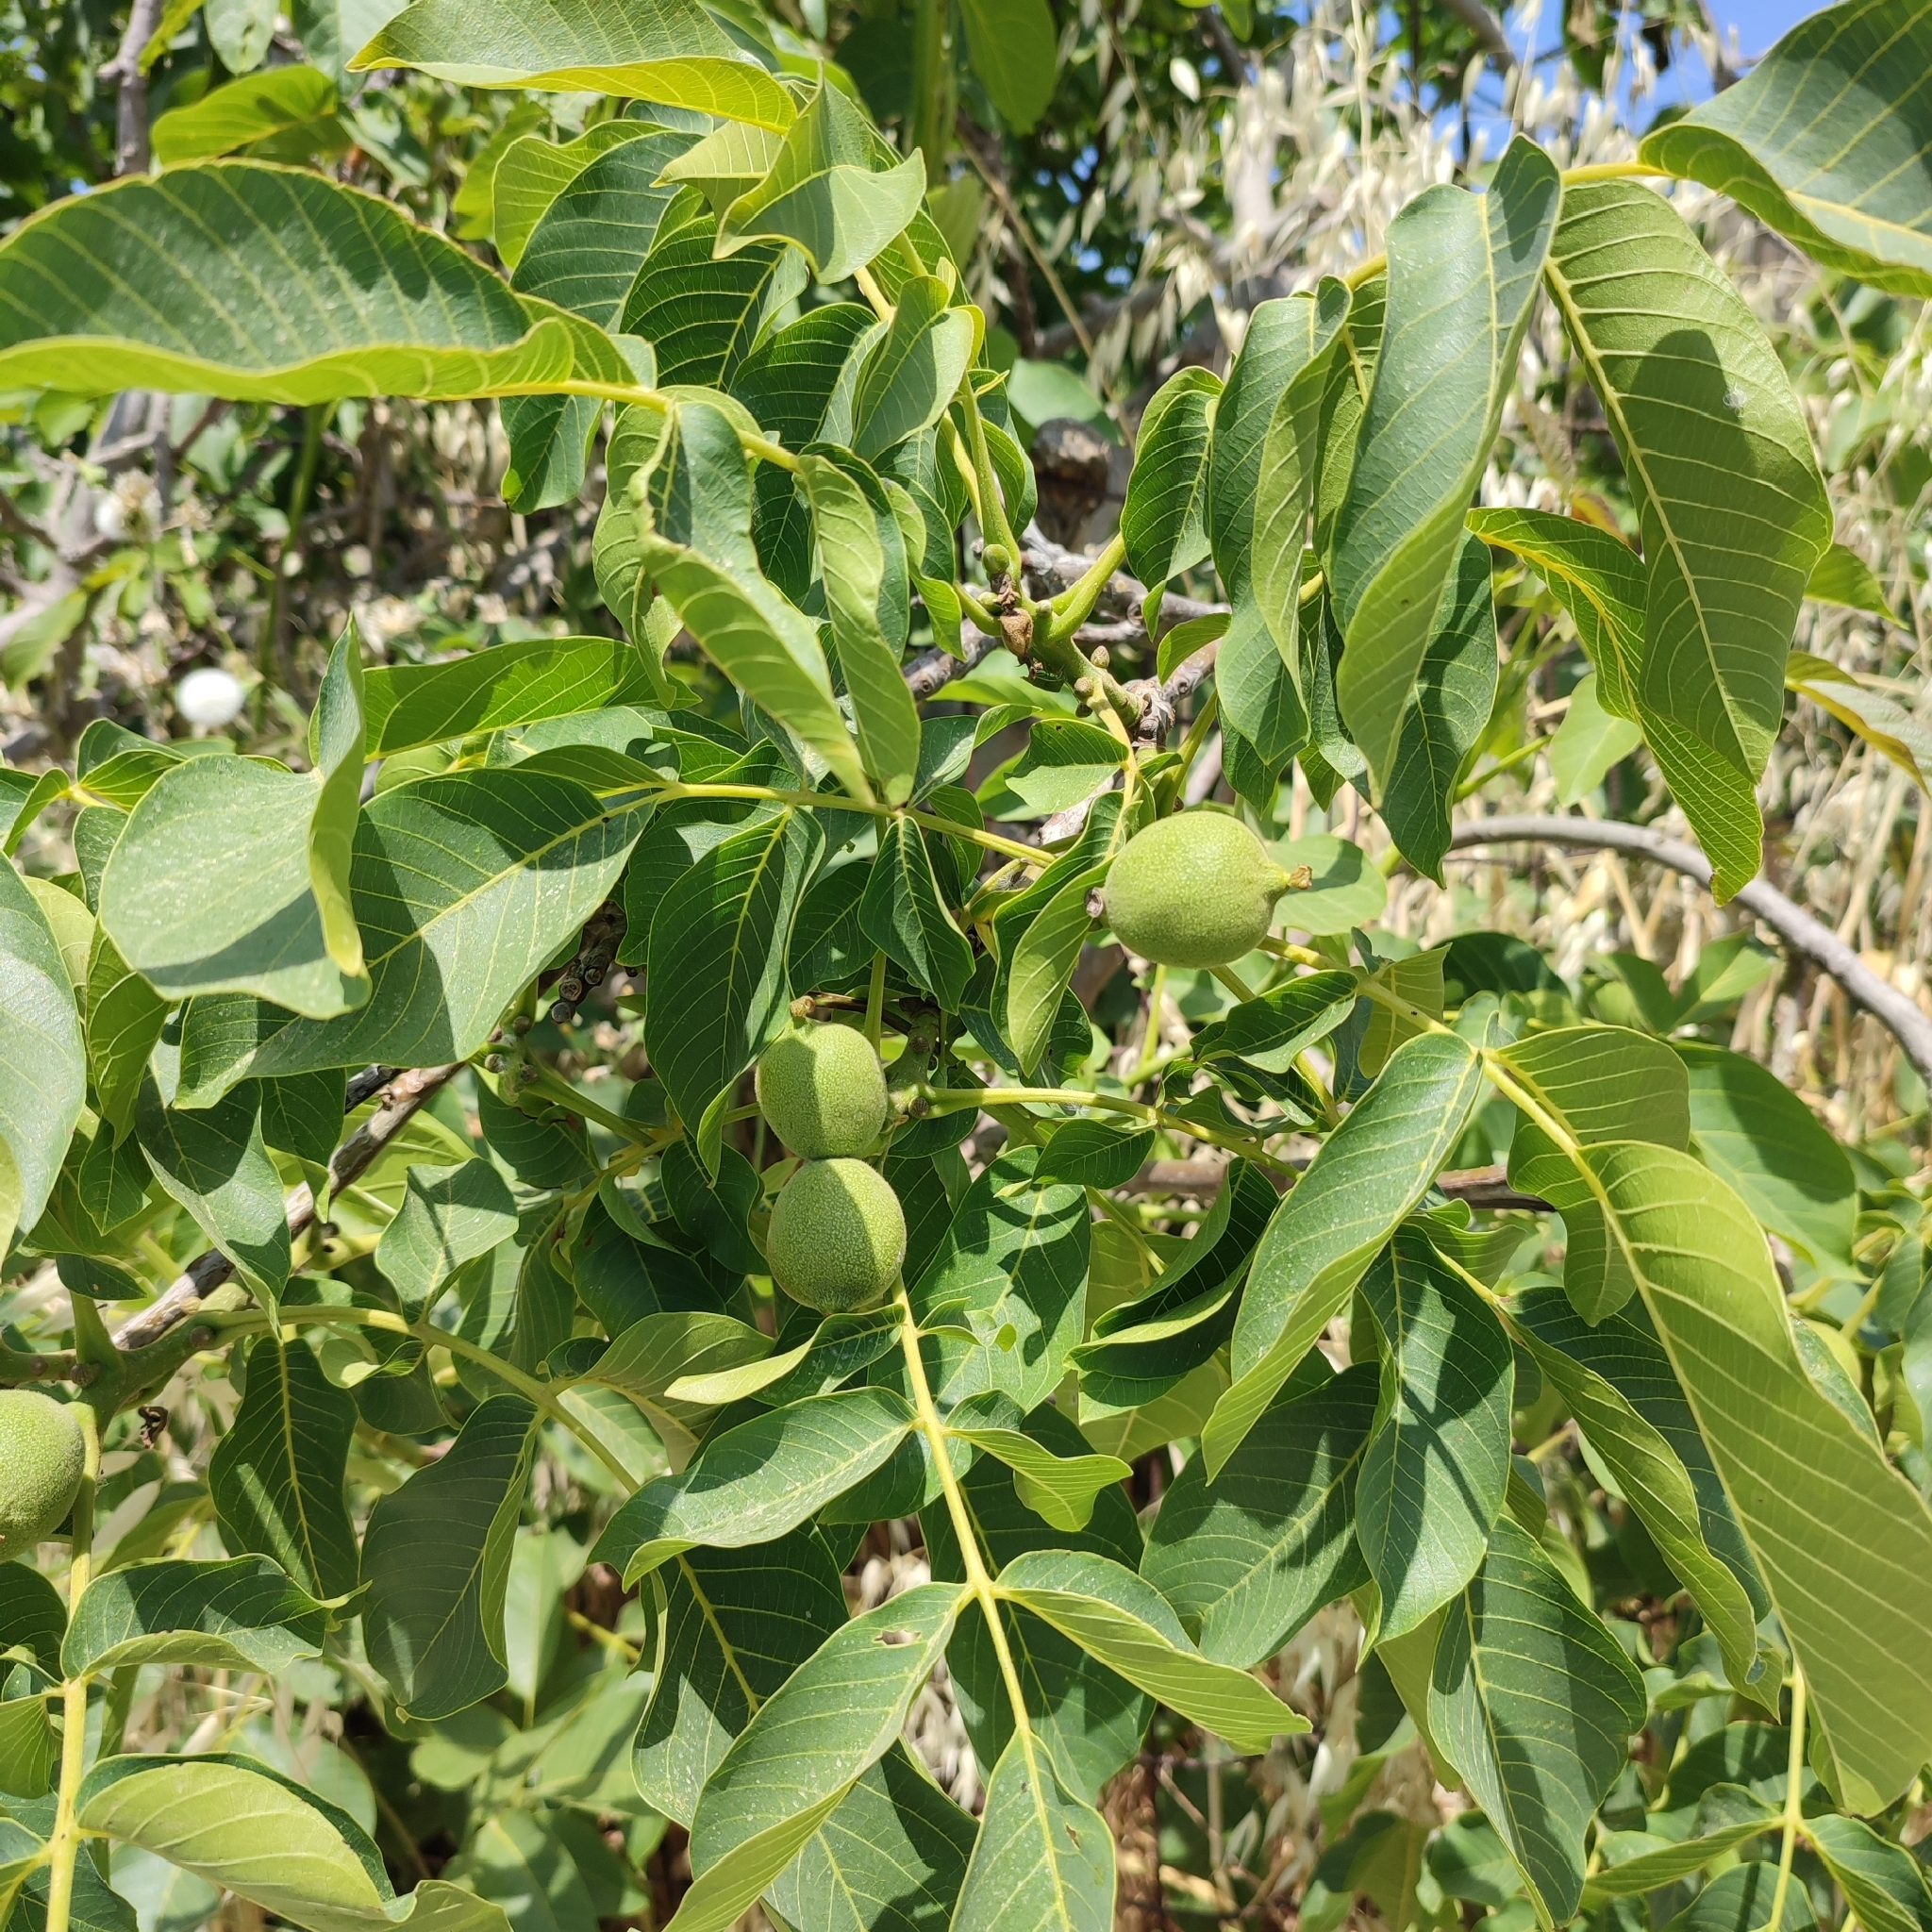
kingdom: Plantae
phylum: Tracheophyta
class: Magnoliopsida
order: Fagales
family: Juglandaceae
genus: Juglans
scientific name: Juglans regia
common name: Walnut
